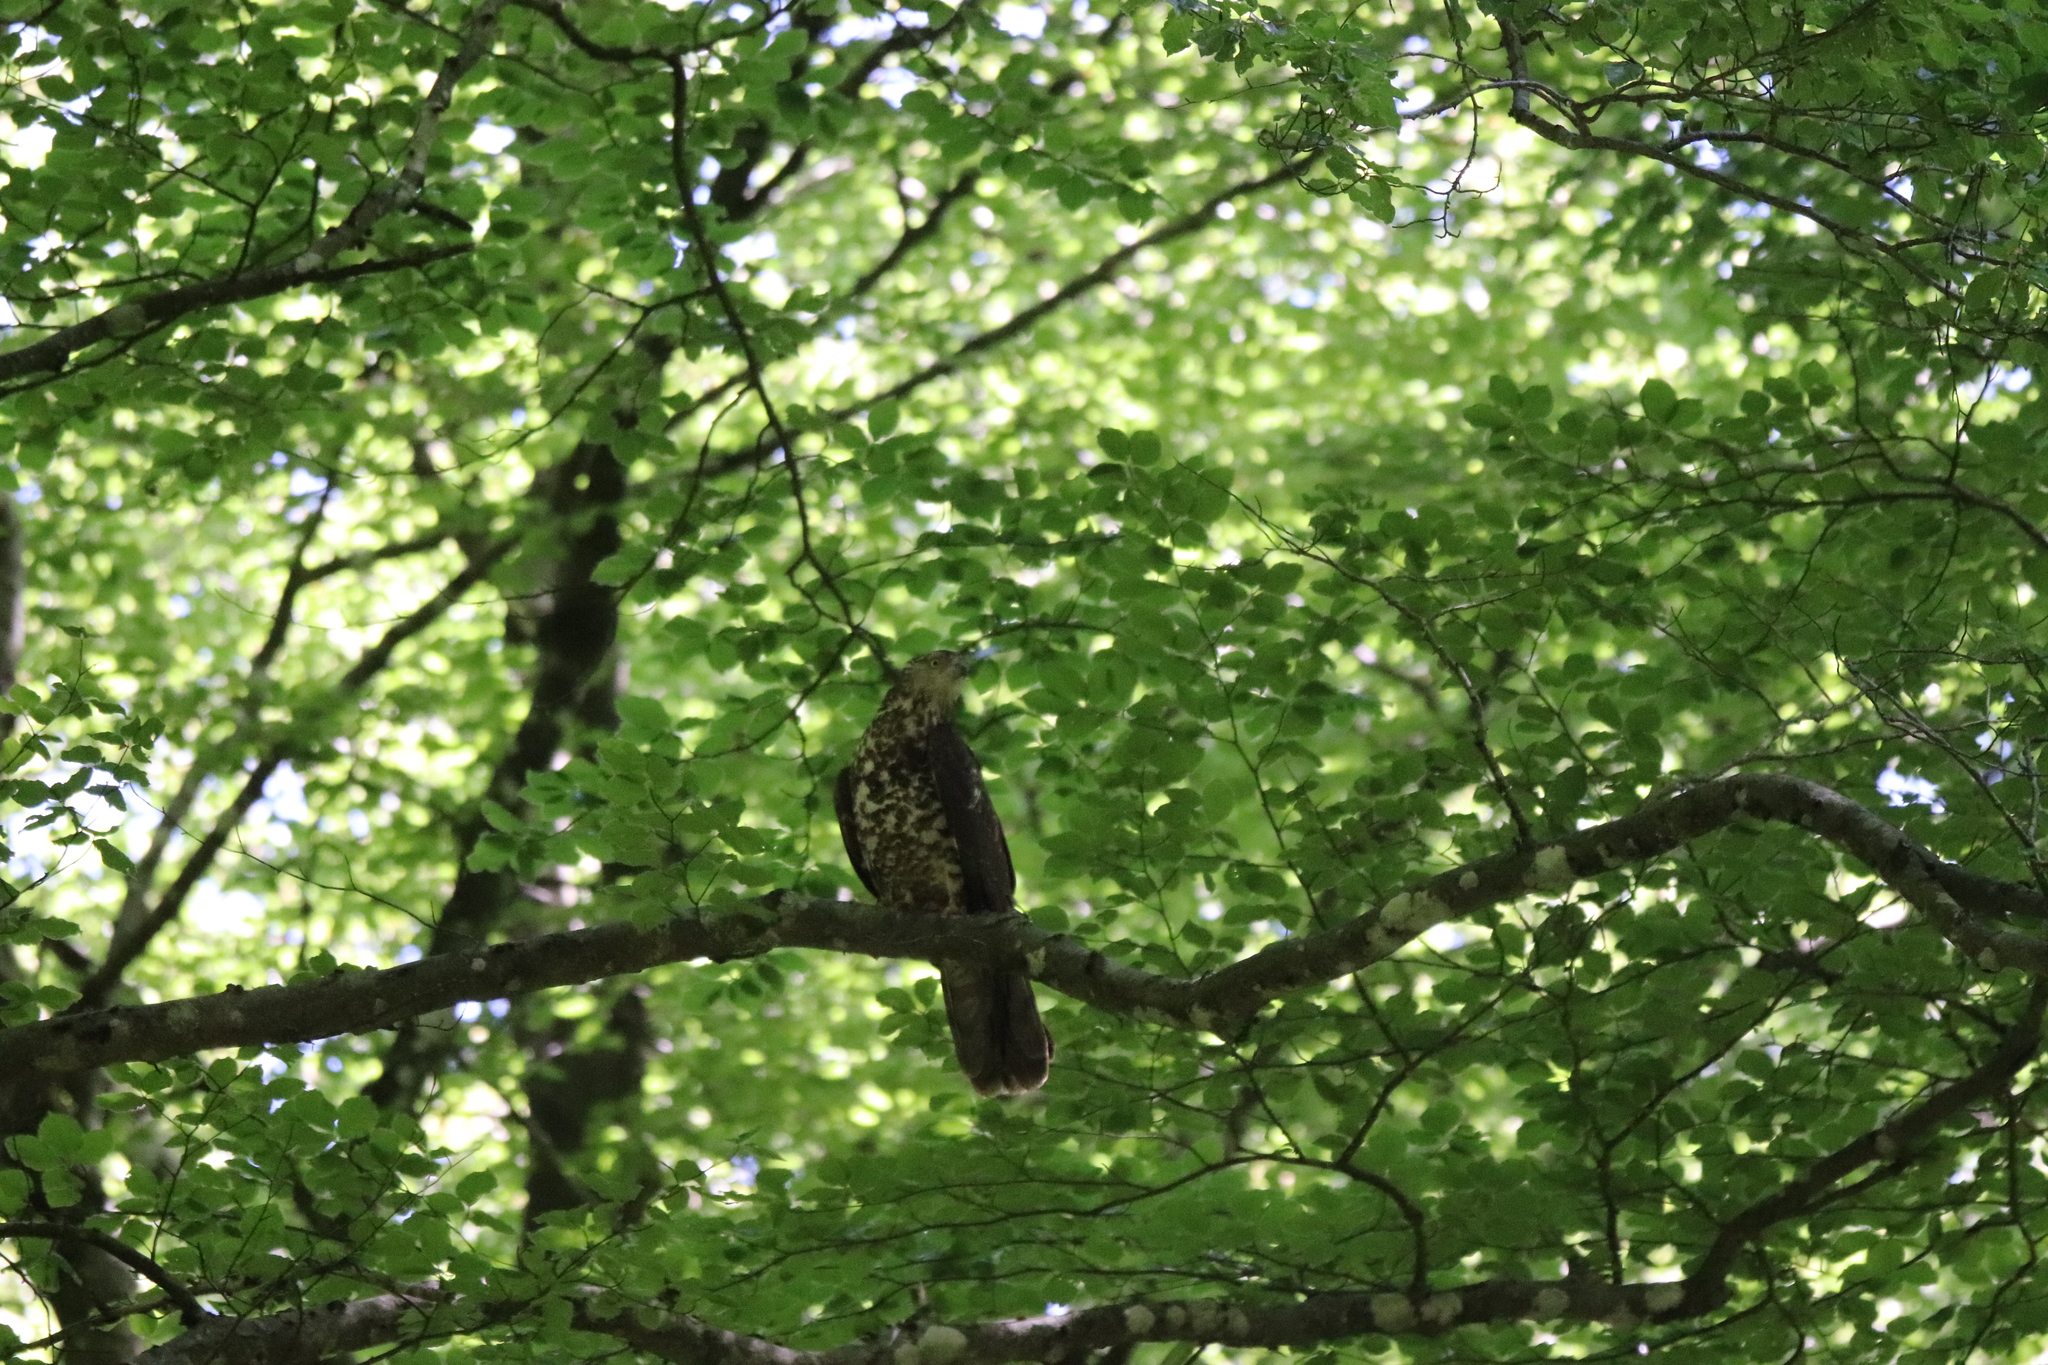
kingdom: Animalia
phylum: Chordata
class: Aves
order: Accipitriformes
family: Accipitridae
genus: Pernis
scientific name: Pernis apivorus
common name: European honey buzzard
